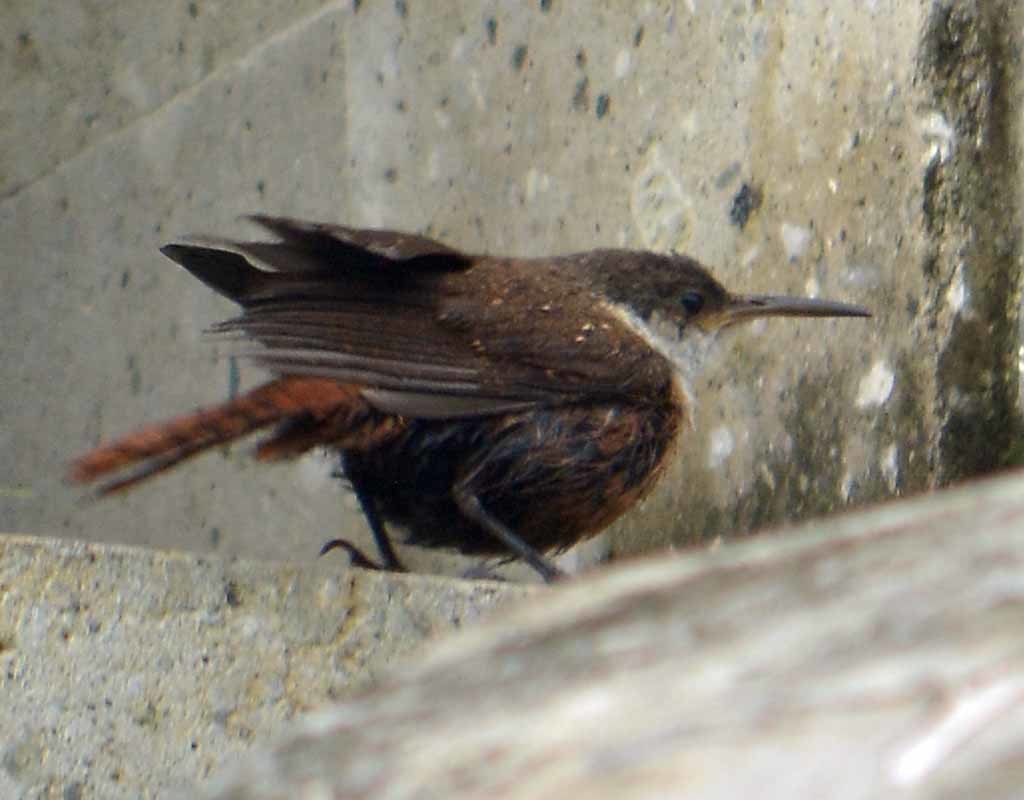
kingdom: Animalia
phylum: Chordata
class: Aves
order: Passeriformes
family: Troglodytidae
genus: Catherpes
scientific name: Catherpes mexicanus
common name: Canyon wren
